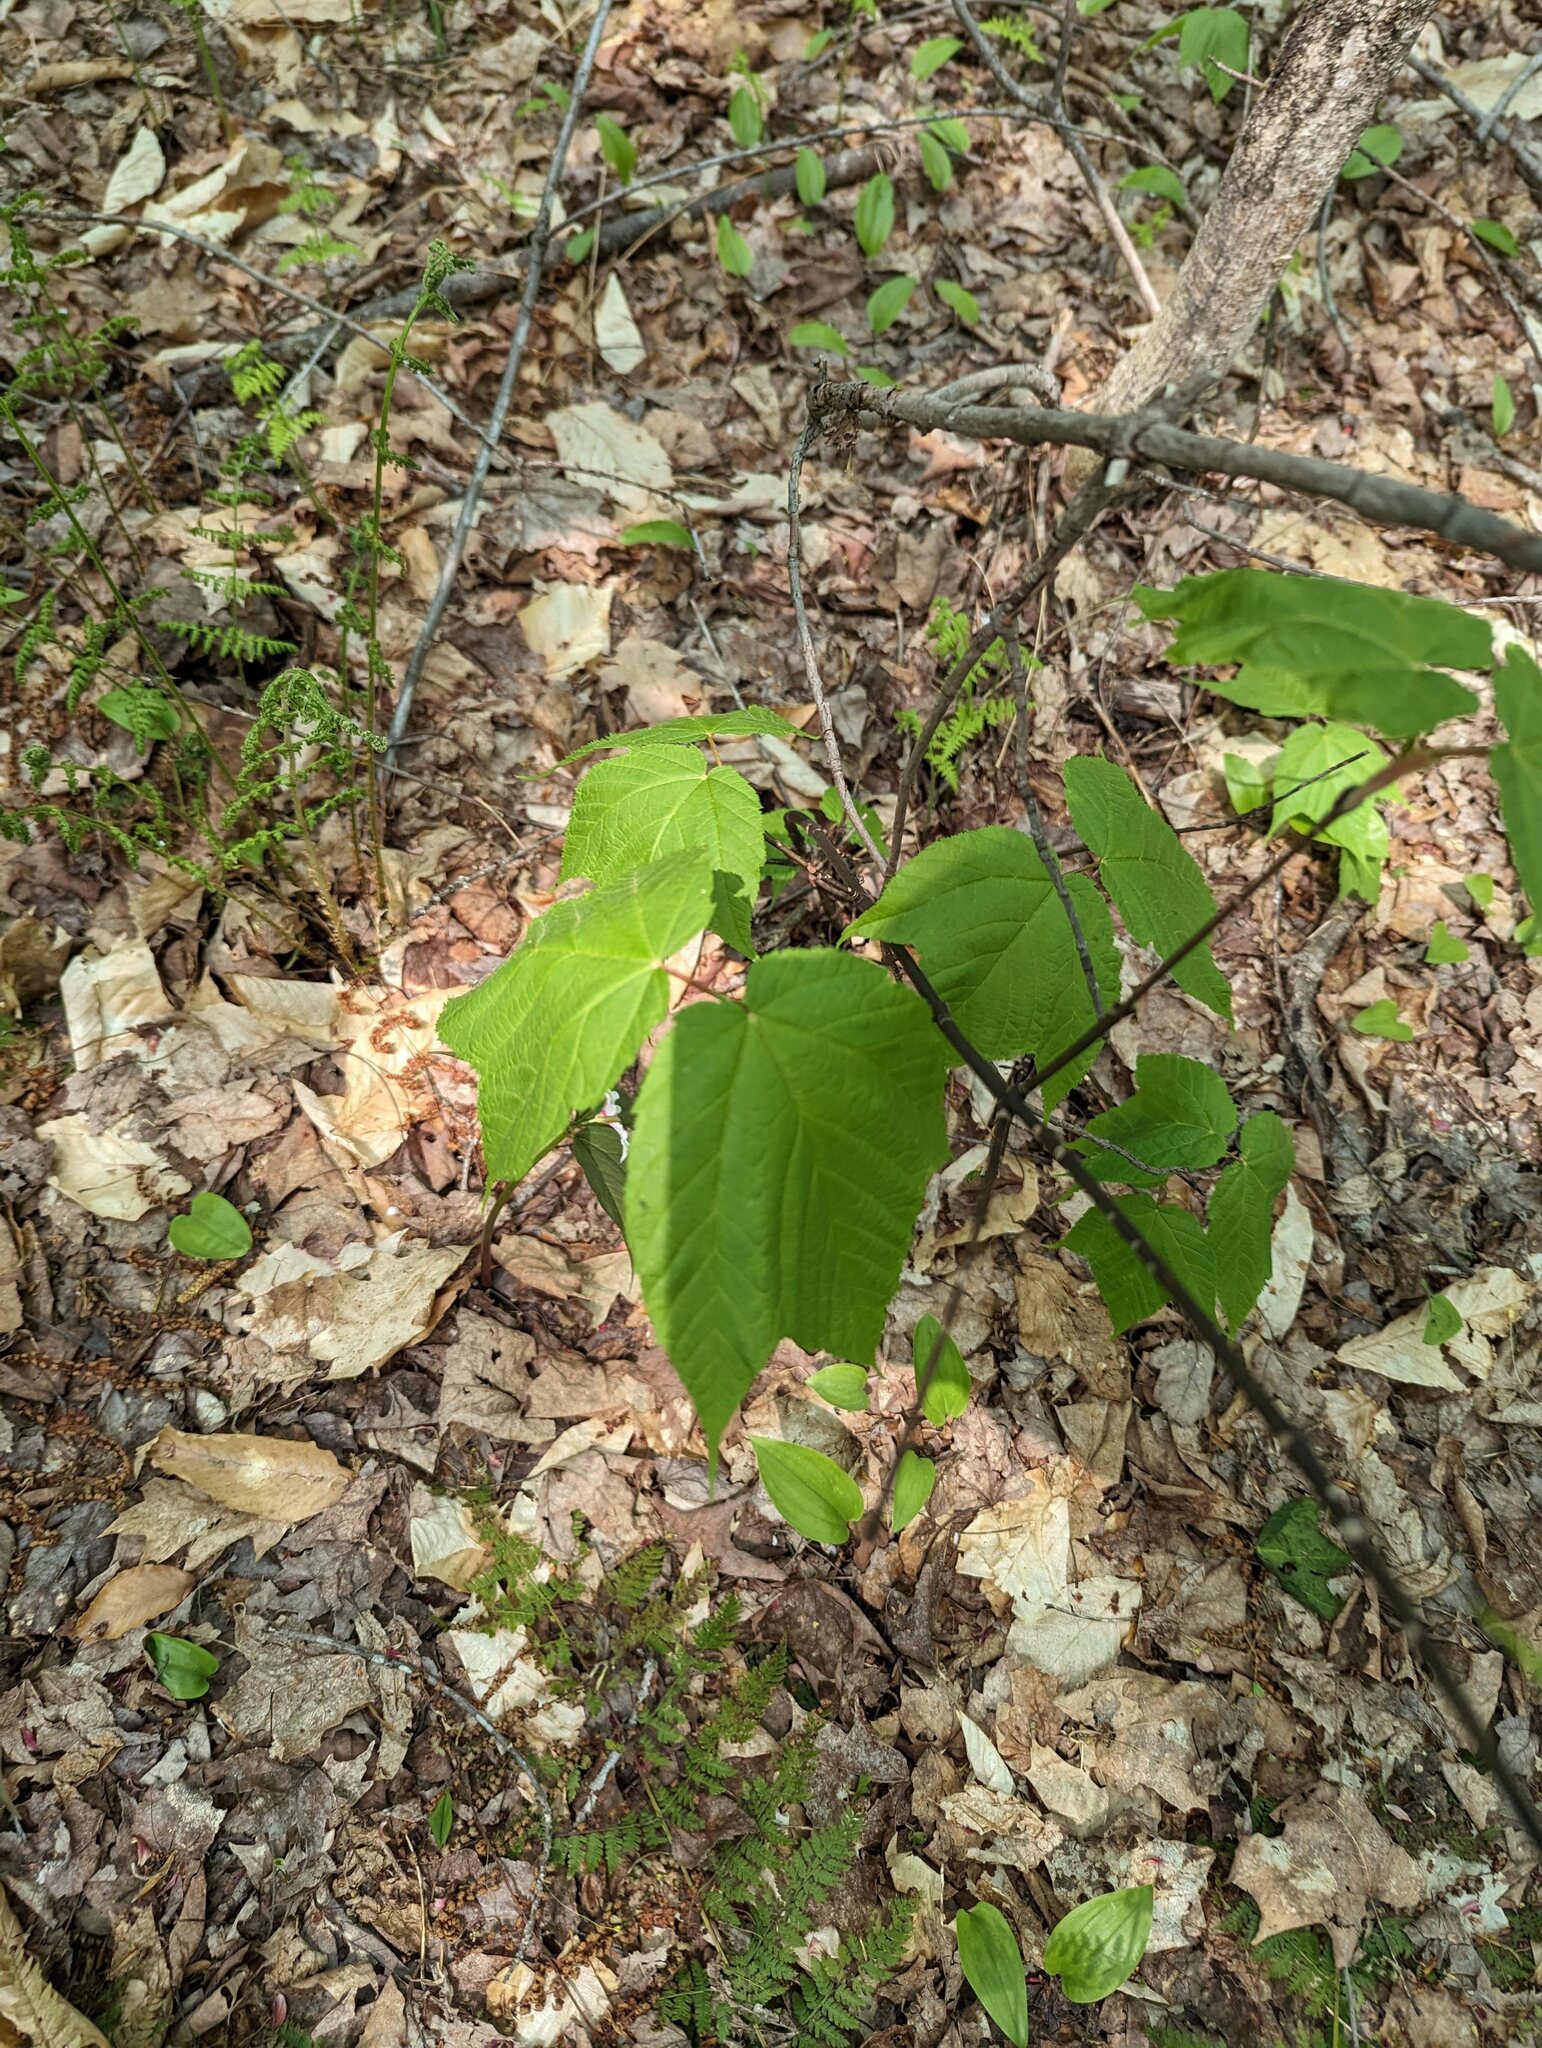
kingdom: Plantae
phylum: Tracheophyta
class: Magnoliopsida
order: Sapindales
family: Sapindaceae
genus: Acer
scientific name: Acer pensylvanicum
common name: Moosewood
